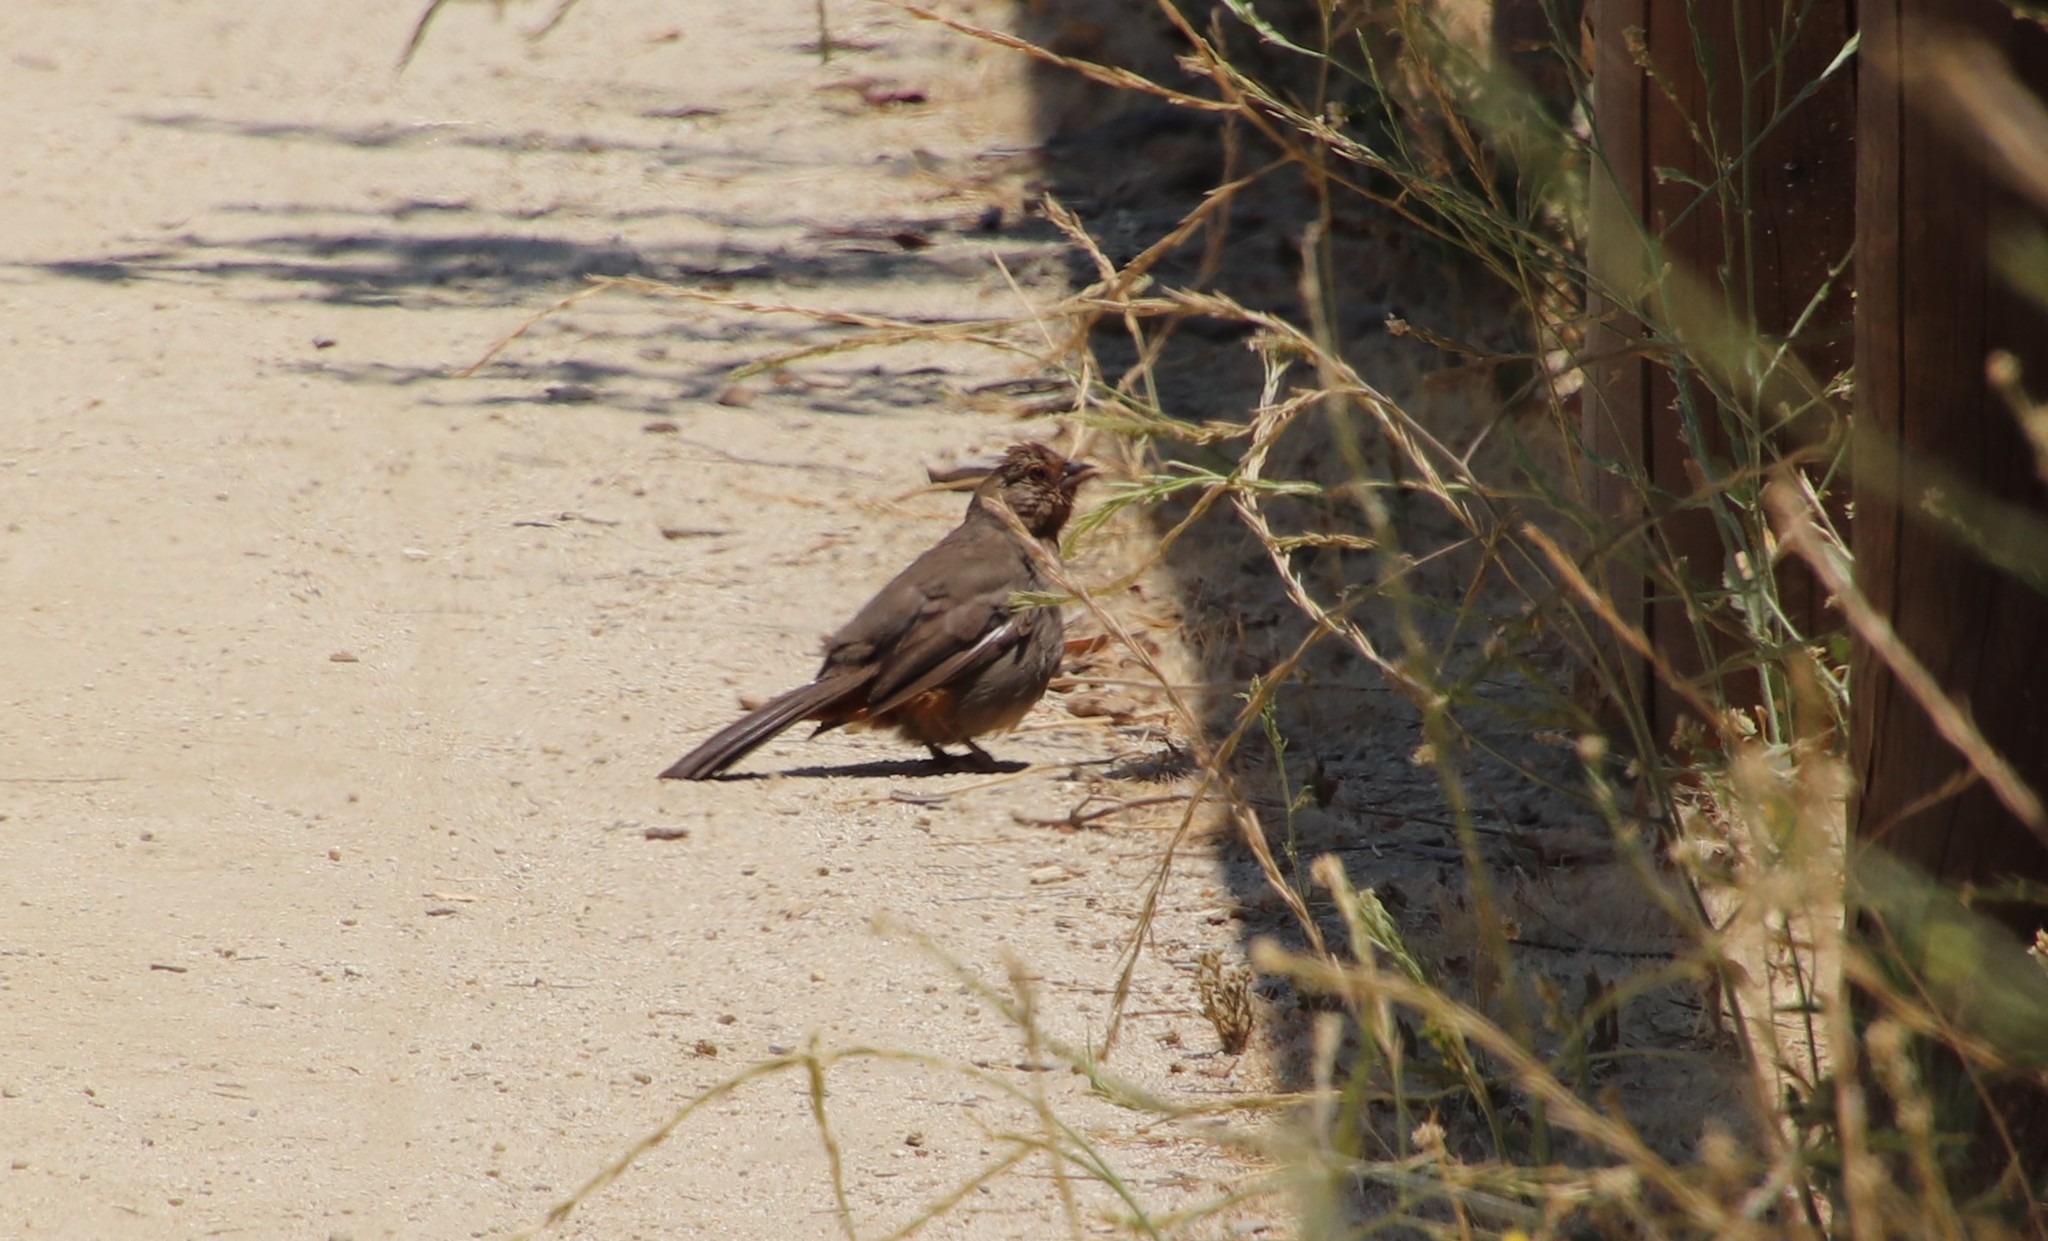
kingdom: Animalia
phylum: Chordata
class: Aves
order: Passeriformes
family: Passerellidae
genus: Melozone
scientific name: Melozone crissalis
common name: California towhee
